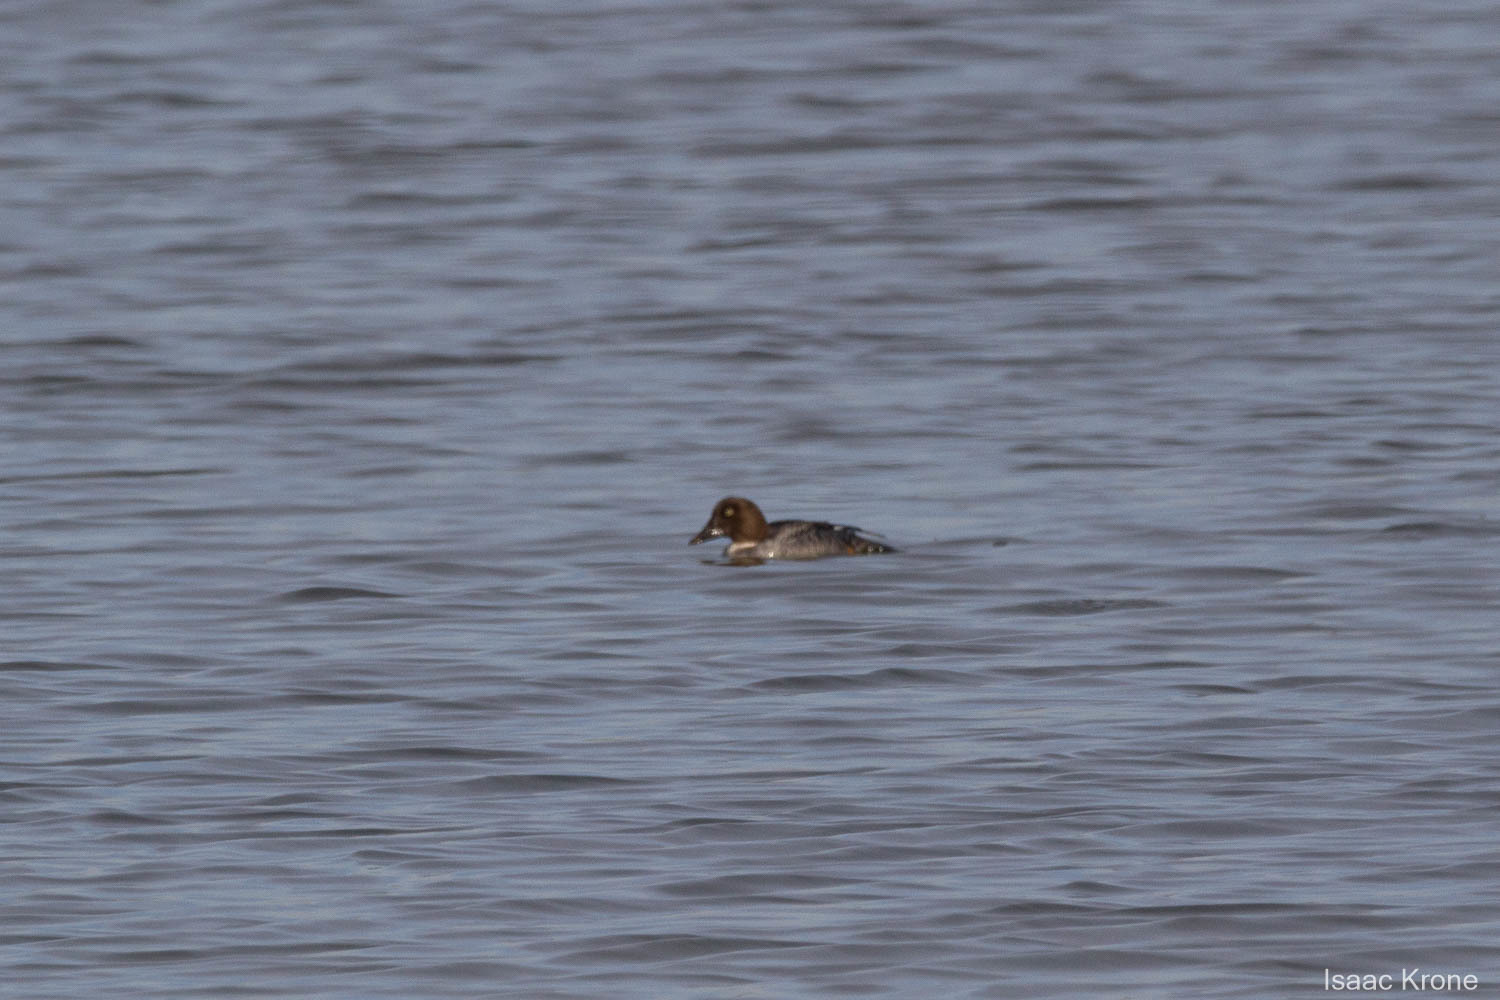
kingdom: Animalia
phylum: Chordata
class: Aves
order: Anseriformes
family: Anatidae
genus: Bucephala
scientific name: Bucephala clangula
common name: Common goldeneye
